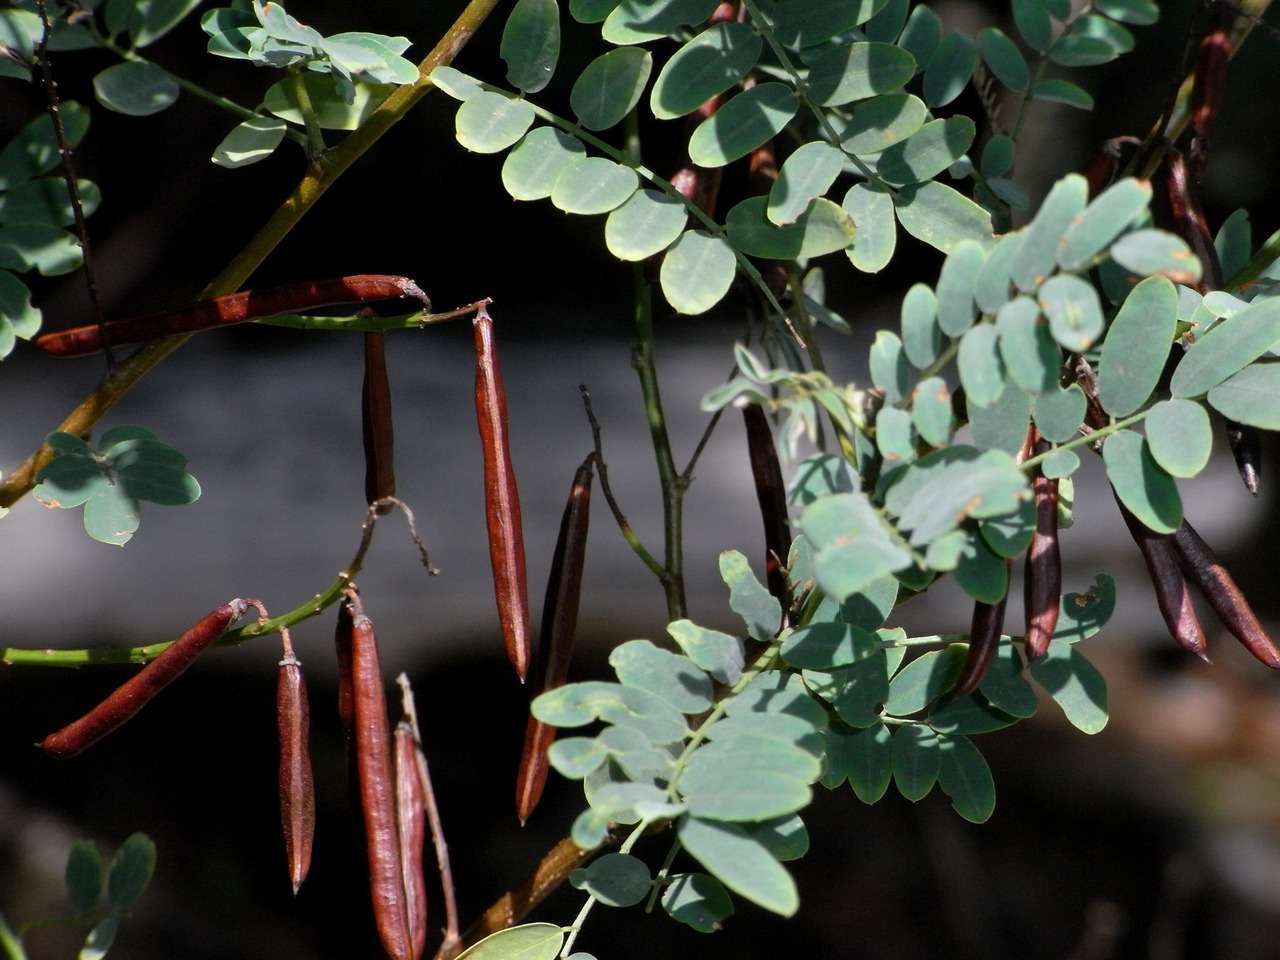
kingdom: Plantae
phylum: Tracheophyta
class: Magnoliopsida
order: Fabales
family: Fabaceae
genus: Indigofera
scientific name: Indigofera australis
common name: Australian indigo
